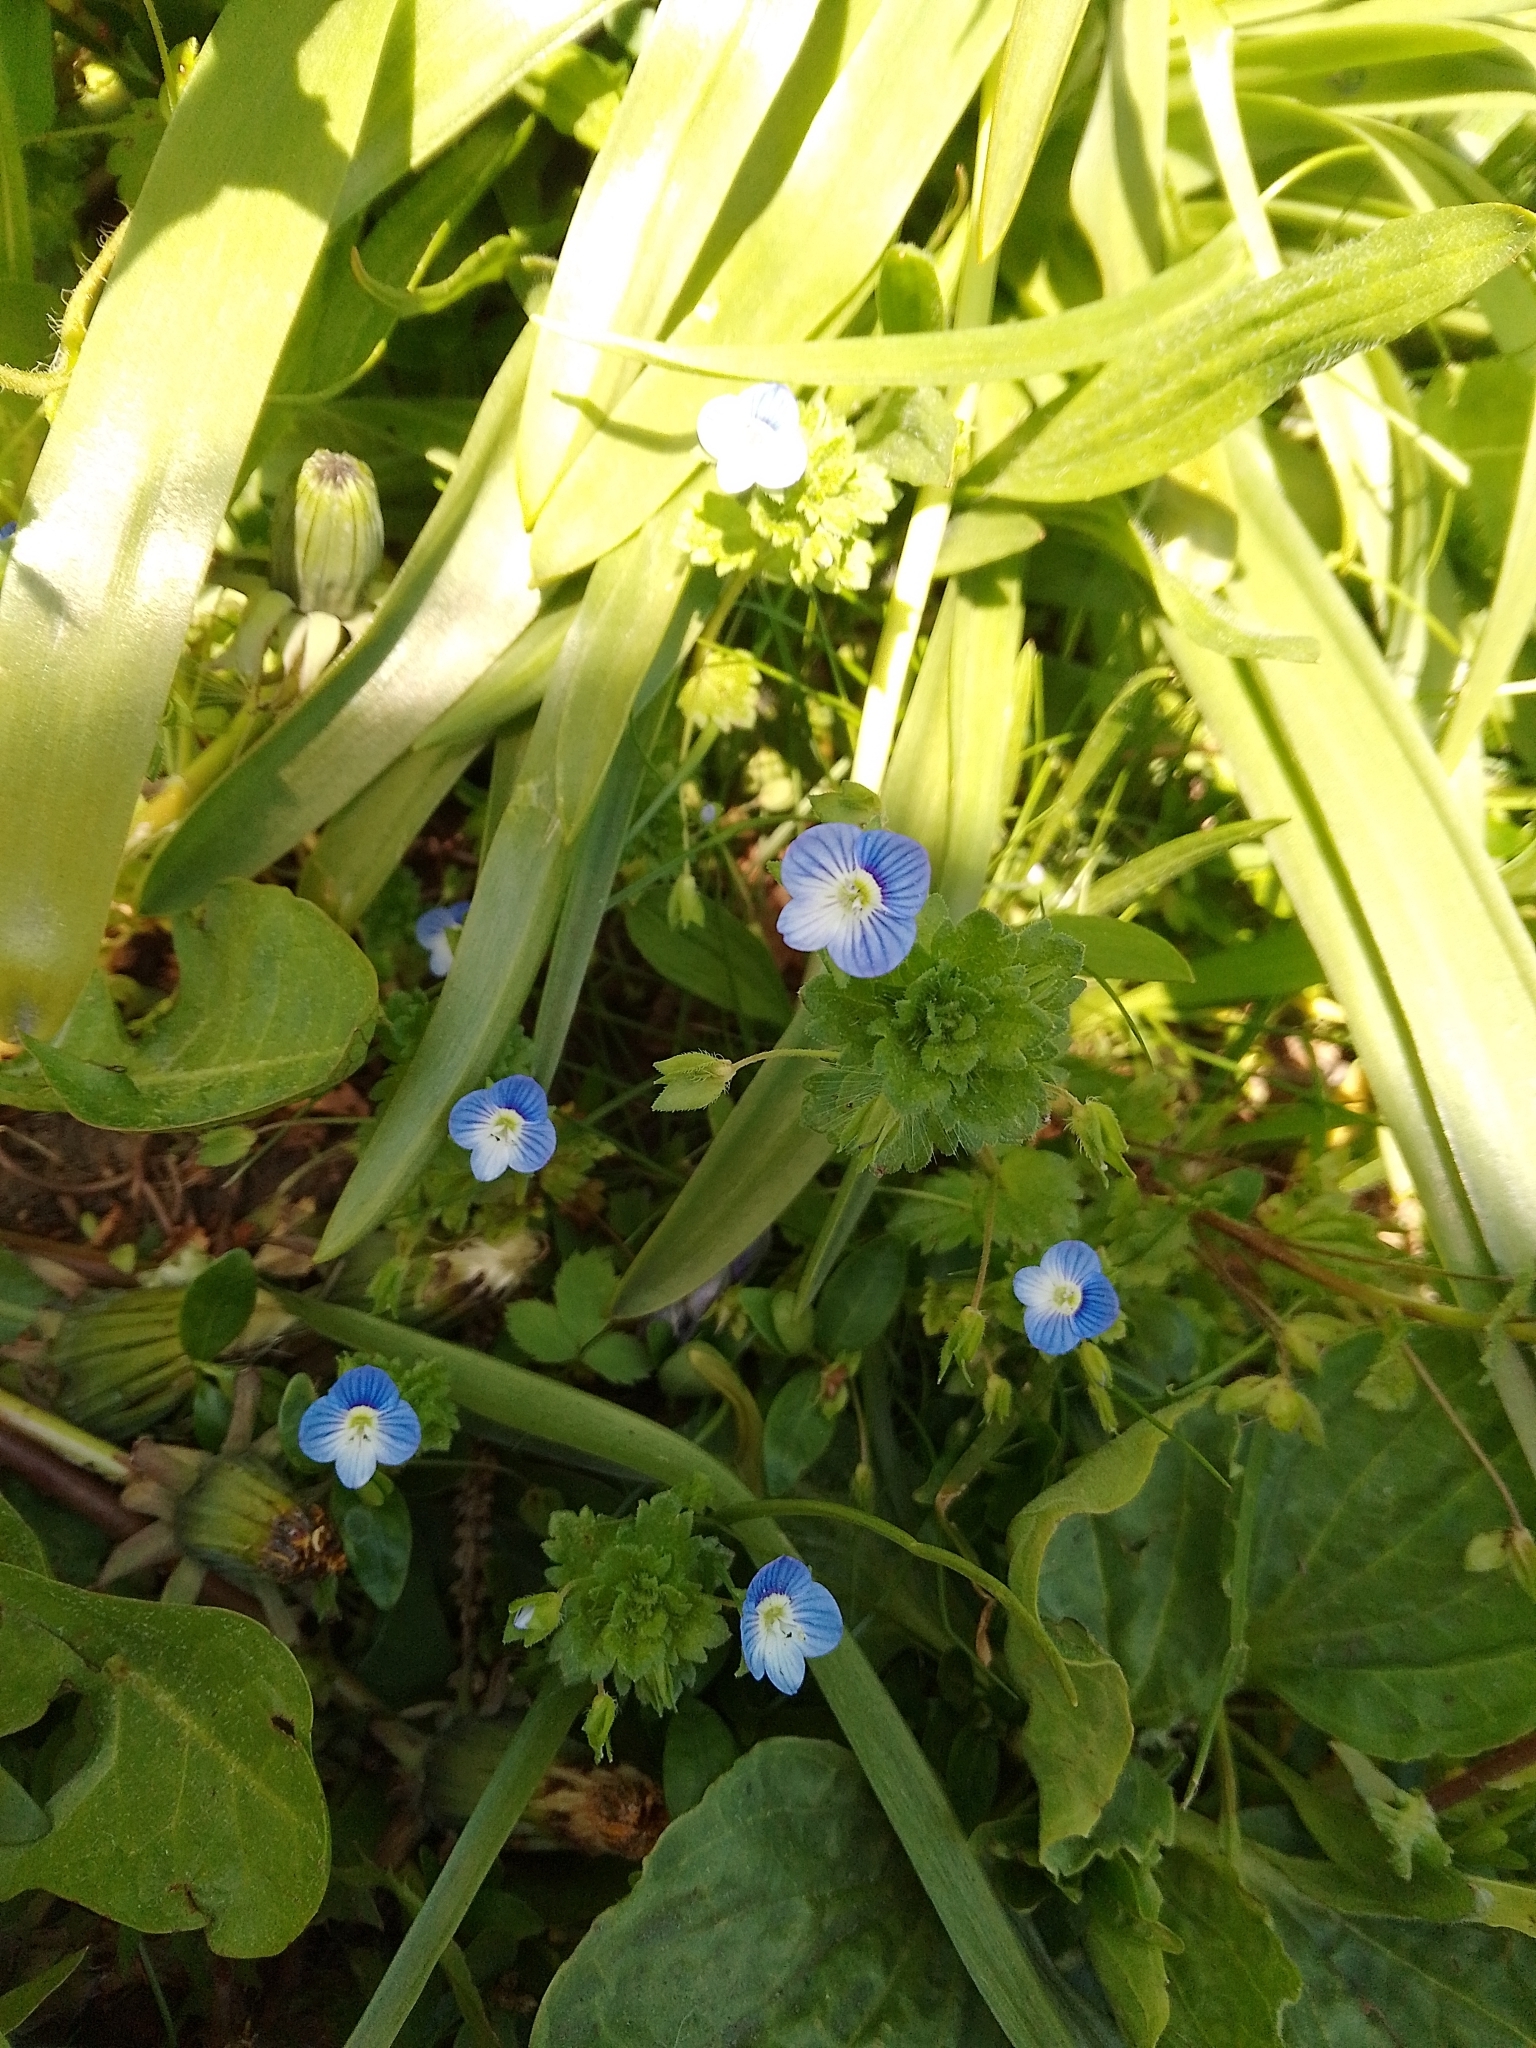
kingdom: Plantae
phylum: Tracheophyta
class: Magnoliopsida
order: Lamiales
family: Plantaginaceae
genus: Veronica
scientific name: Veronica persica
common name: Common field-speedwell
